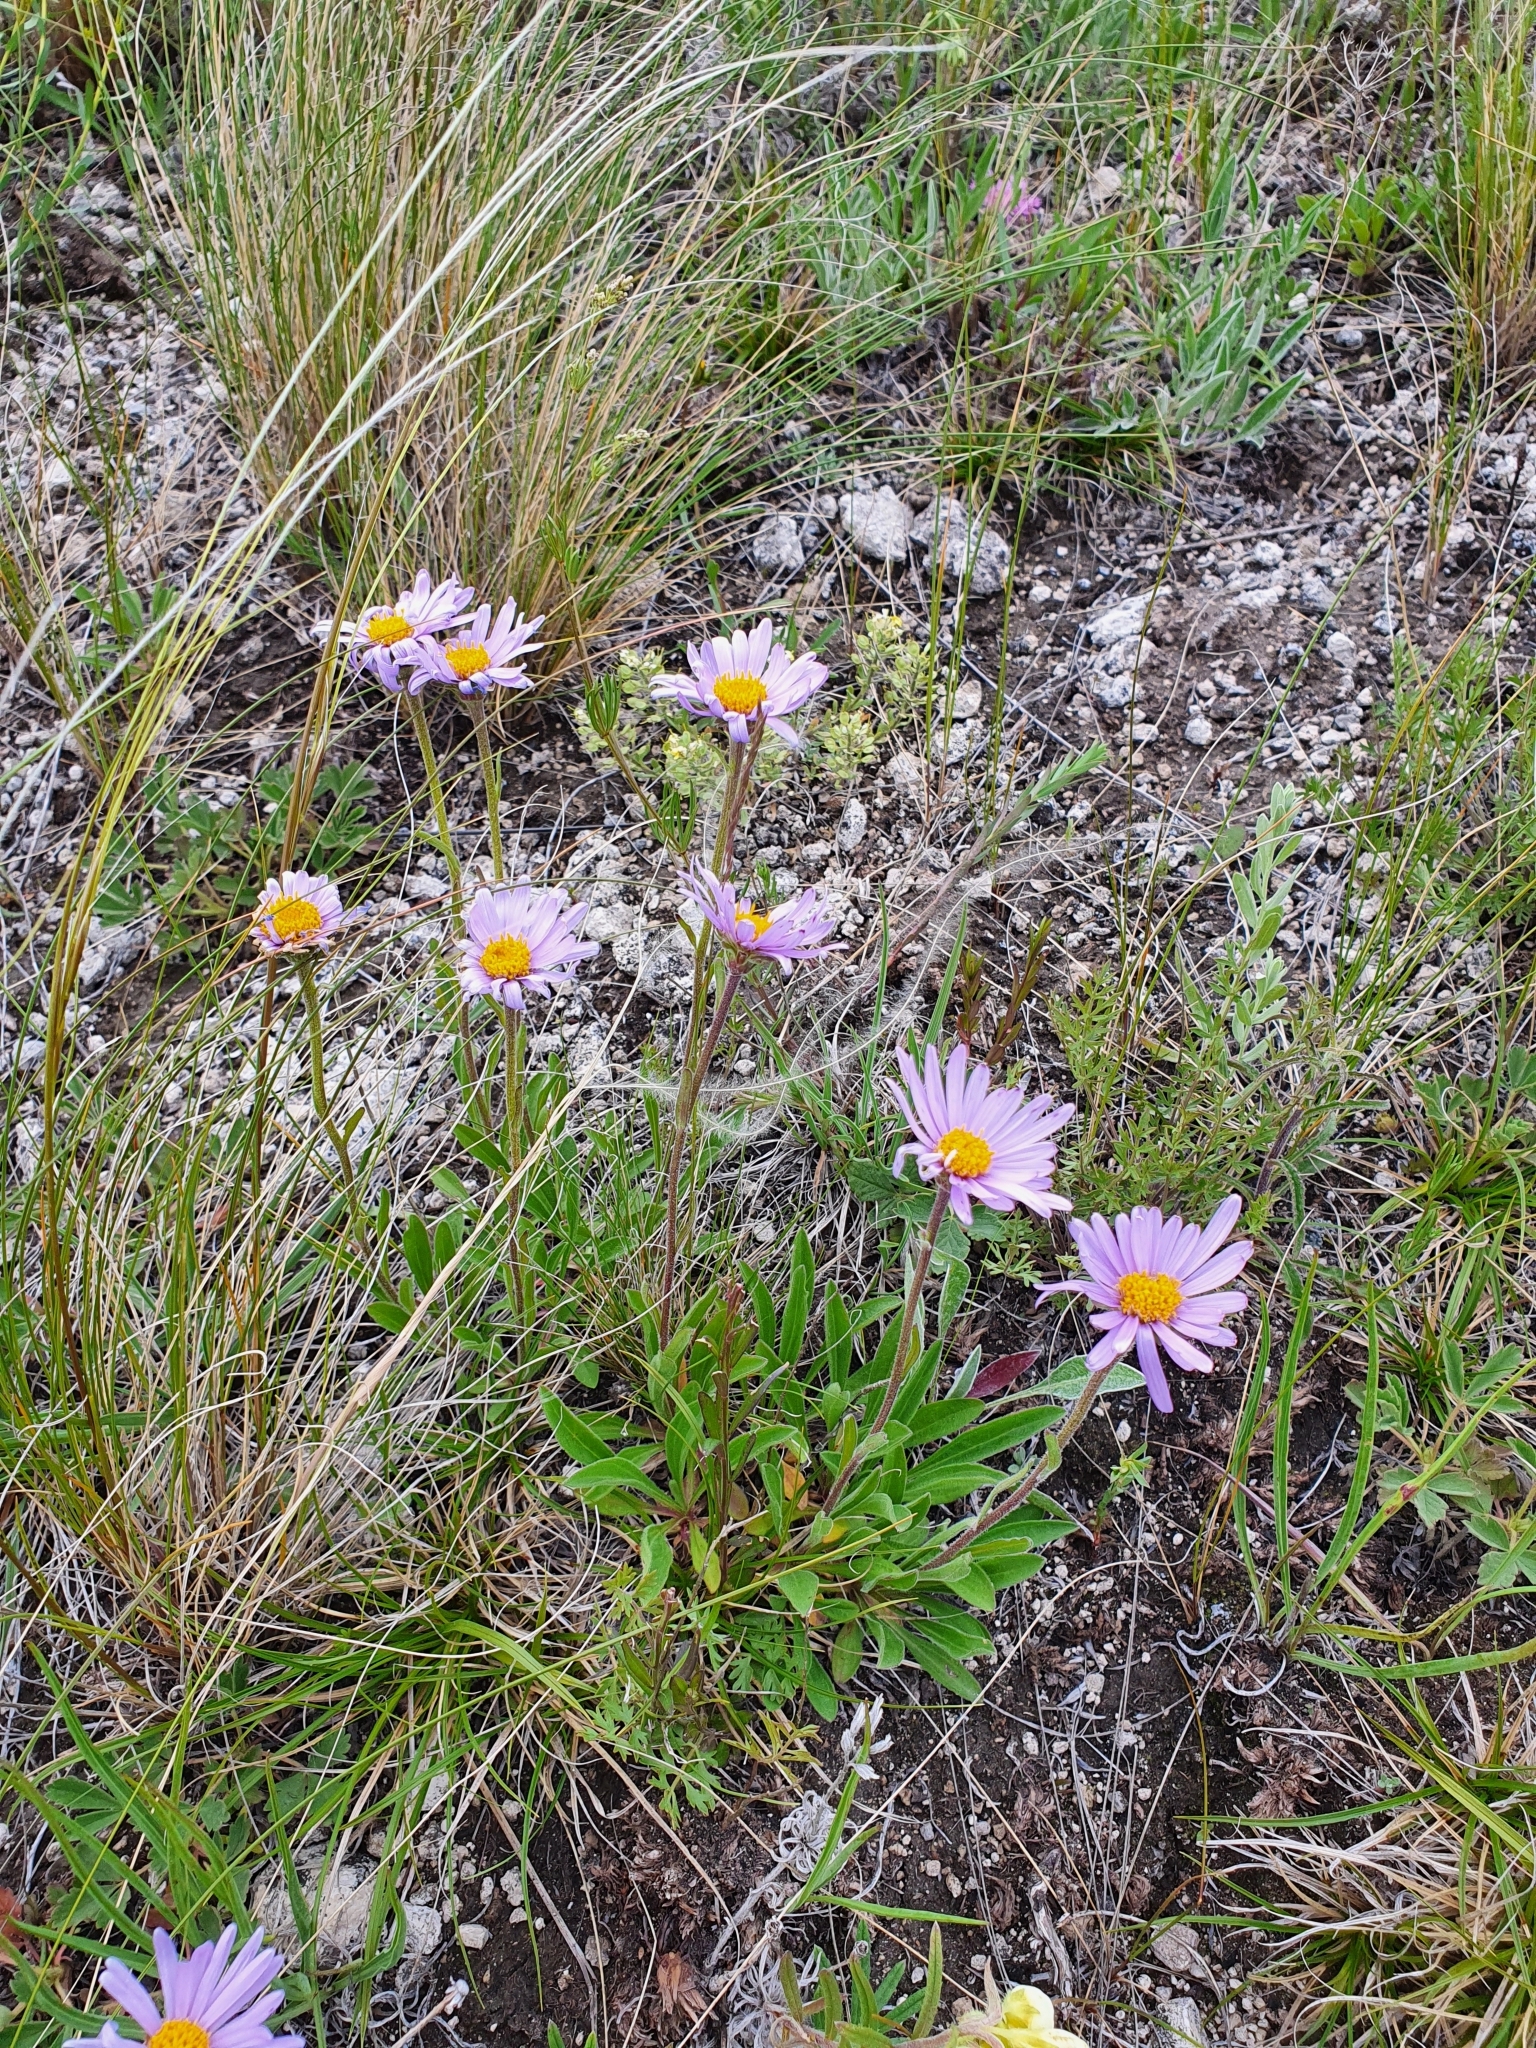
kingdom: Plantae
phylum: Tracheophyta
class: Magnoliopsida
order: Asterales
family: Asteraceae
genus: Aster
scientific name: Aster alpinus
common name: Alpine aster
